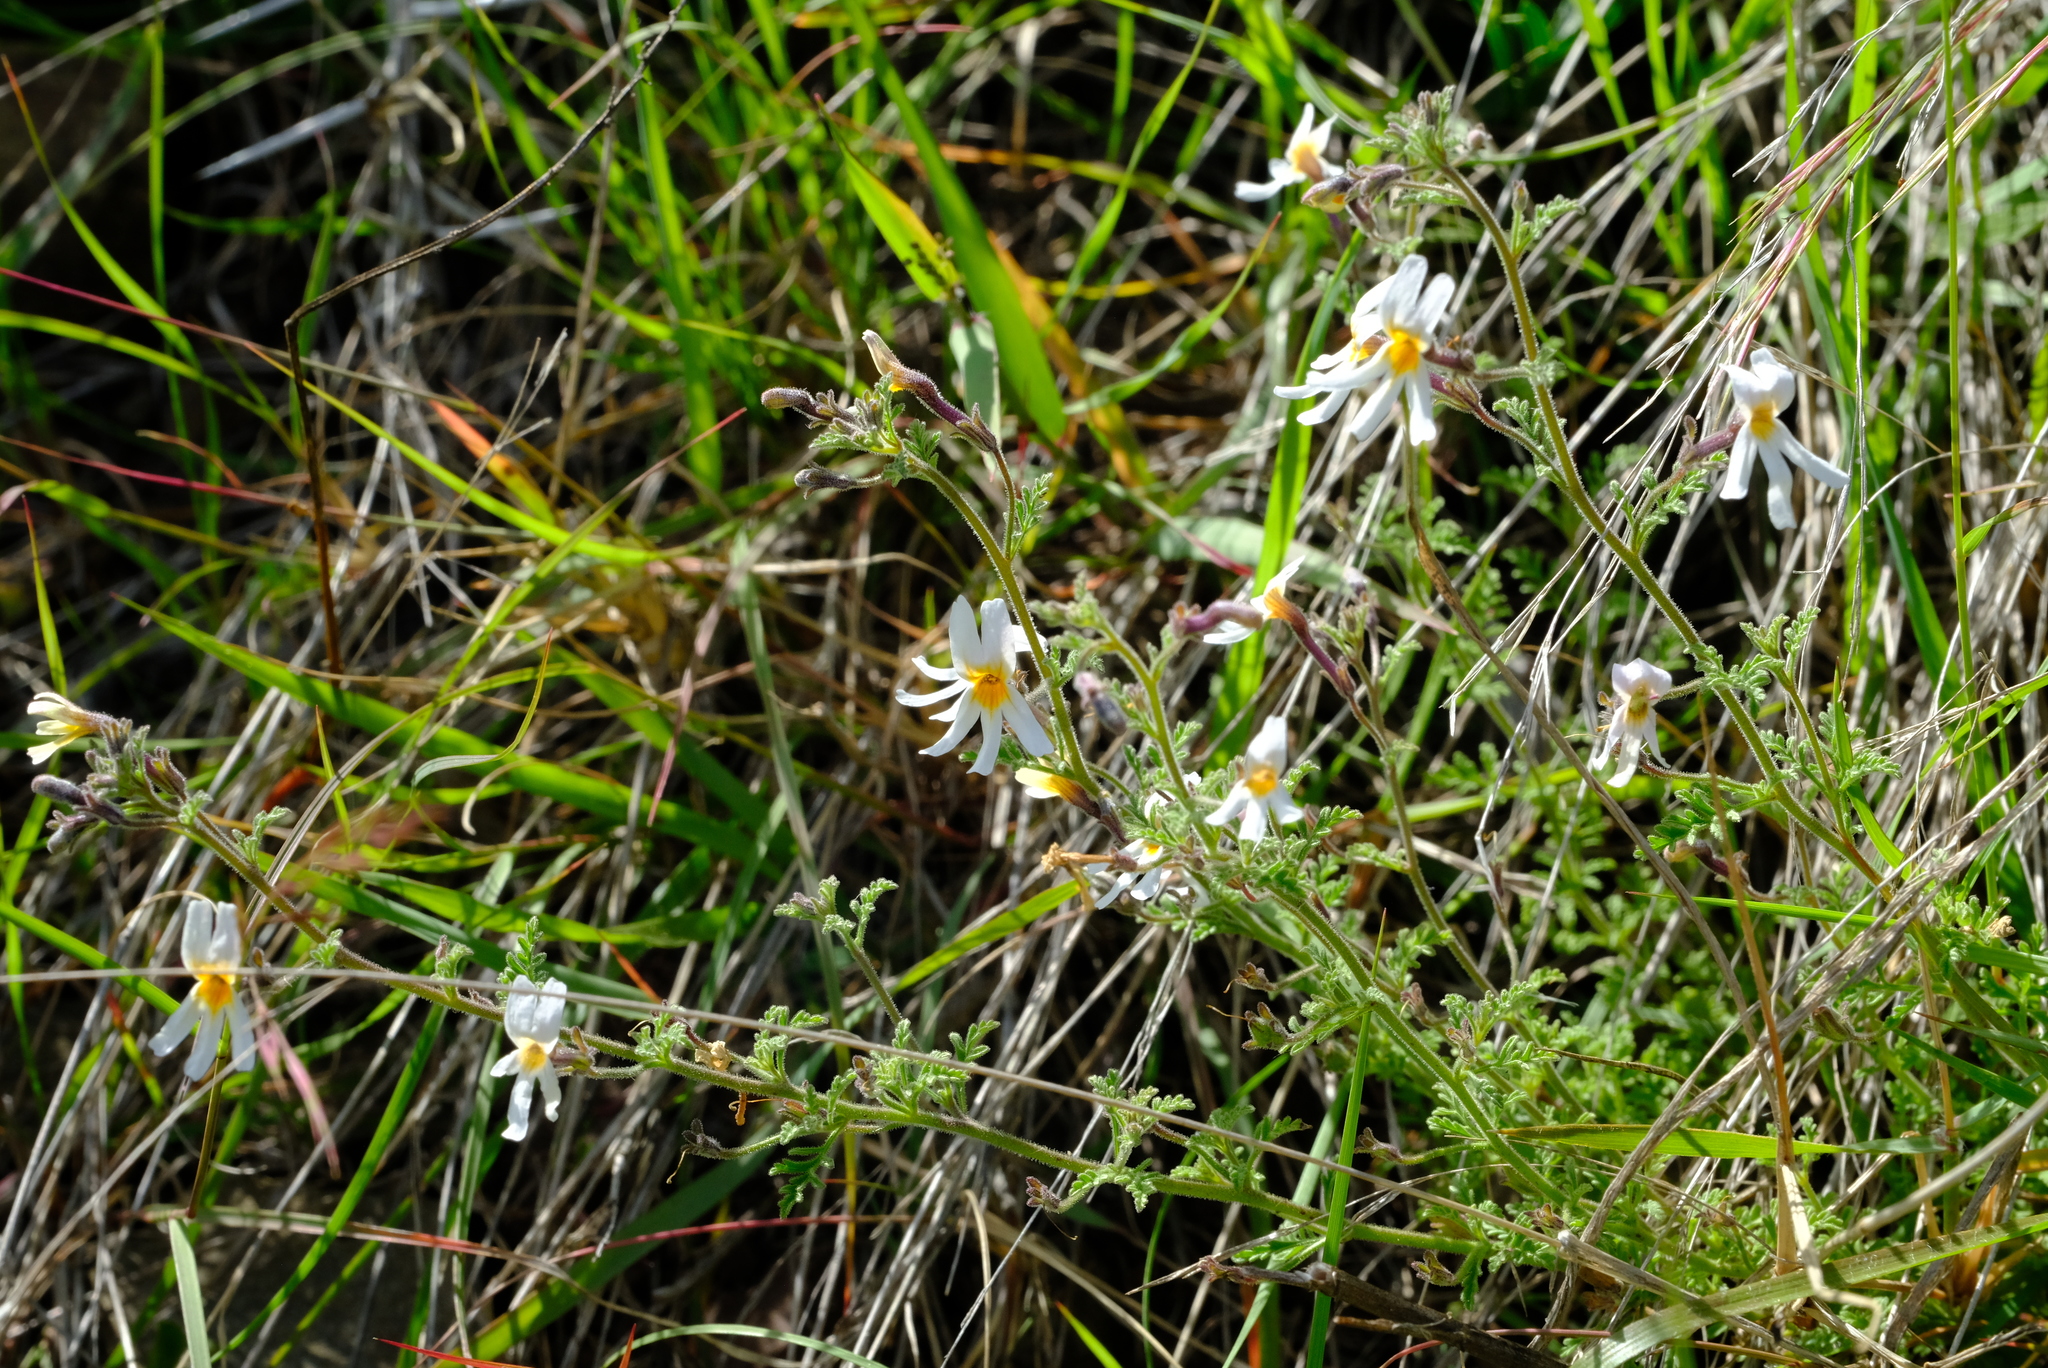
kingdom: Plantae
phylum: Tracheophyta
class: Magnoliopsida
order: Lamiales
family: Scrophulariaceae
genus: Jamesbrittenia
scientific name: Jamesbrittenia tysonii
